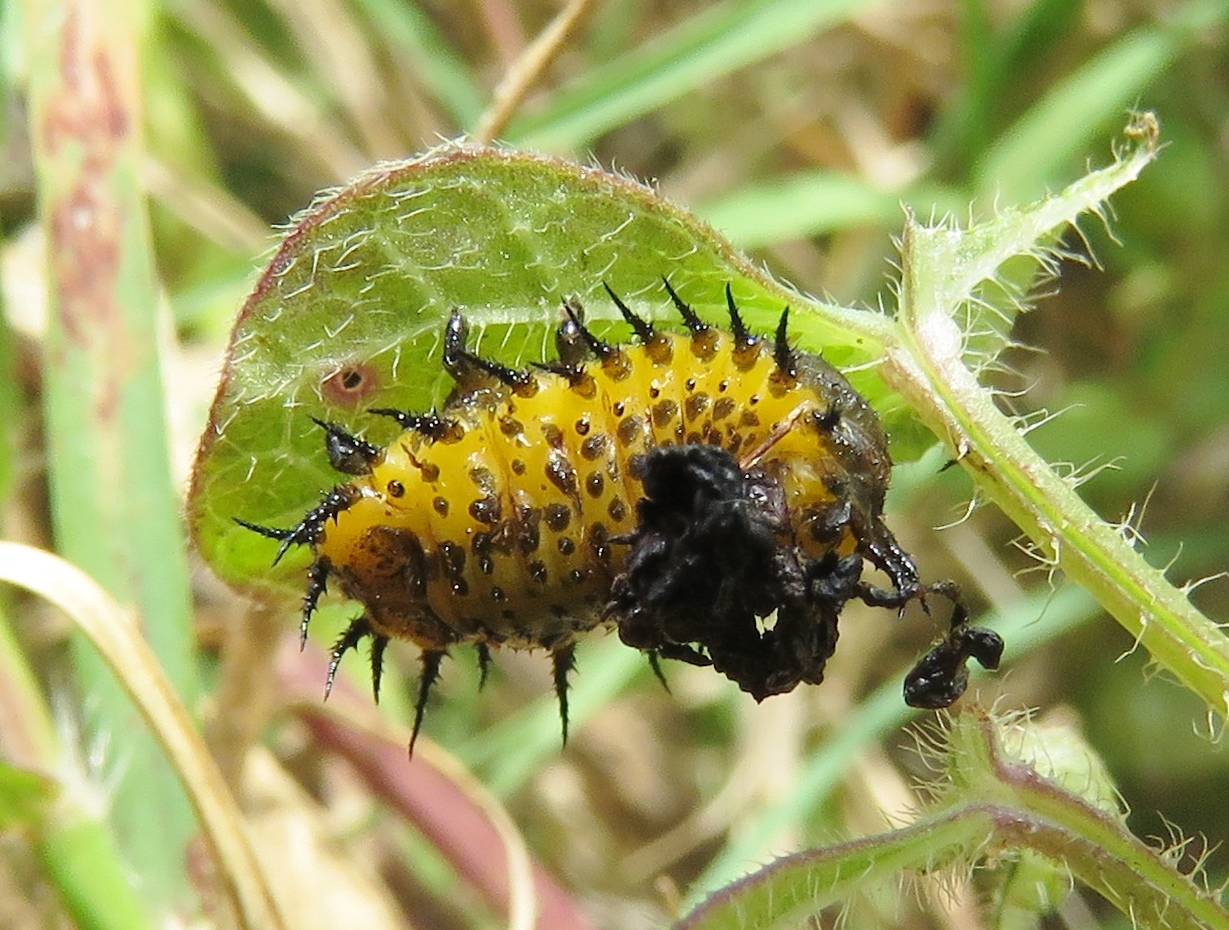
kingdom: Animalia
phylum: Arthropoda
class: Insecta
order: Coleoptera
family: Chrysomelidae
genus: Chelymorpha
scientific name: Chelymorpha cassidea
